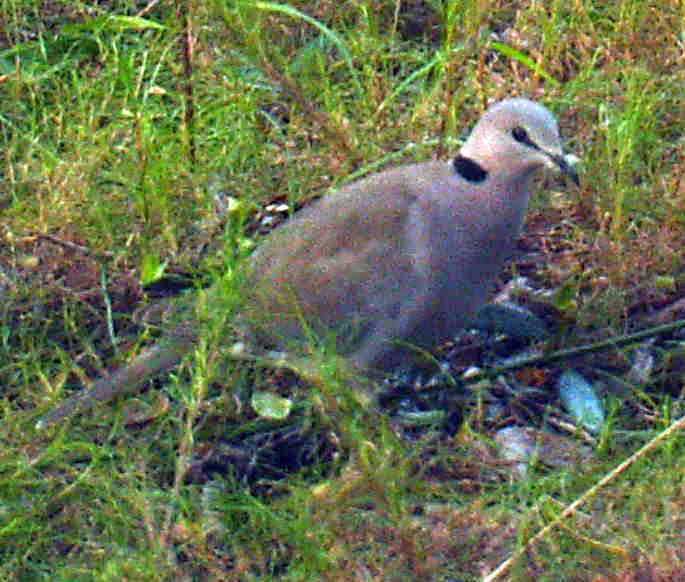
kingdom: Animalia
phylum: Chordata
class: Aves
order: Columbiformes
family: Columbidae
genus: Streptopelia
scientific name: Streptopelia capicola
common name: Ring-necked dove
